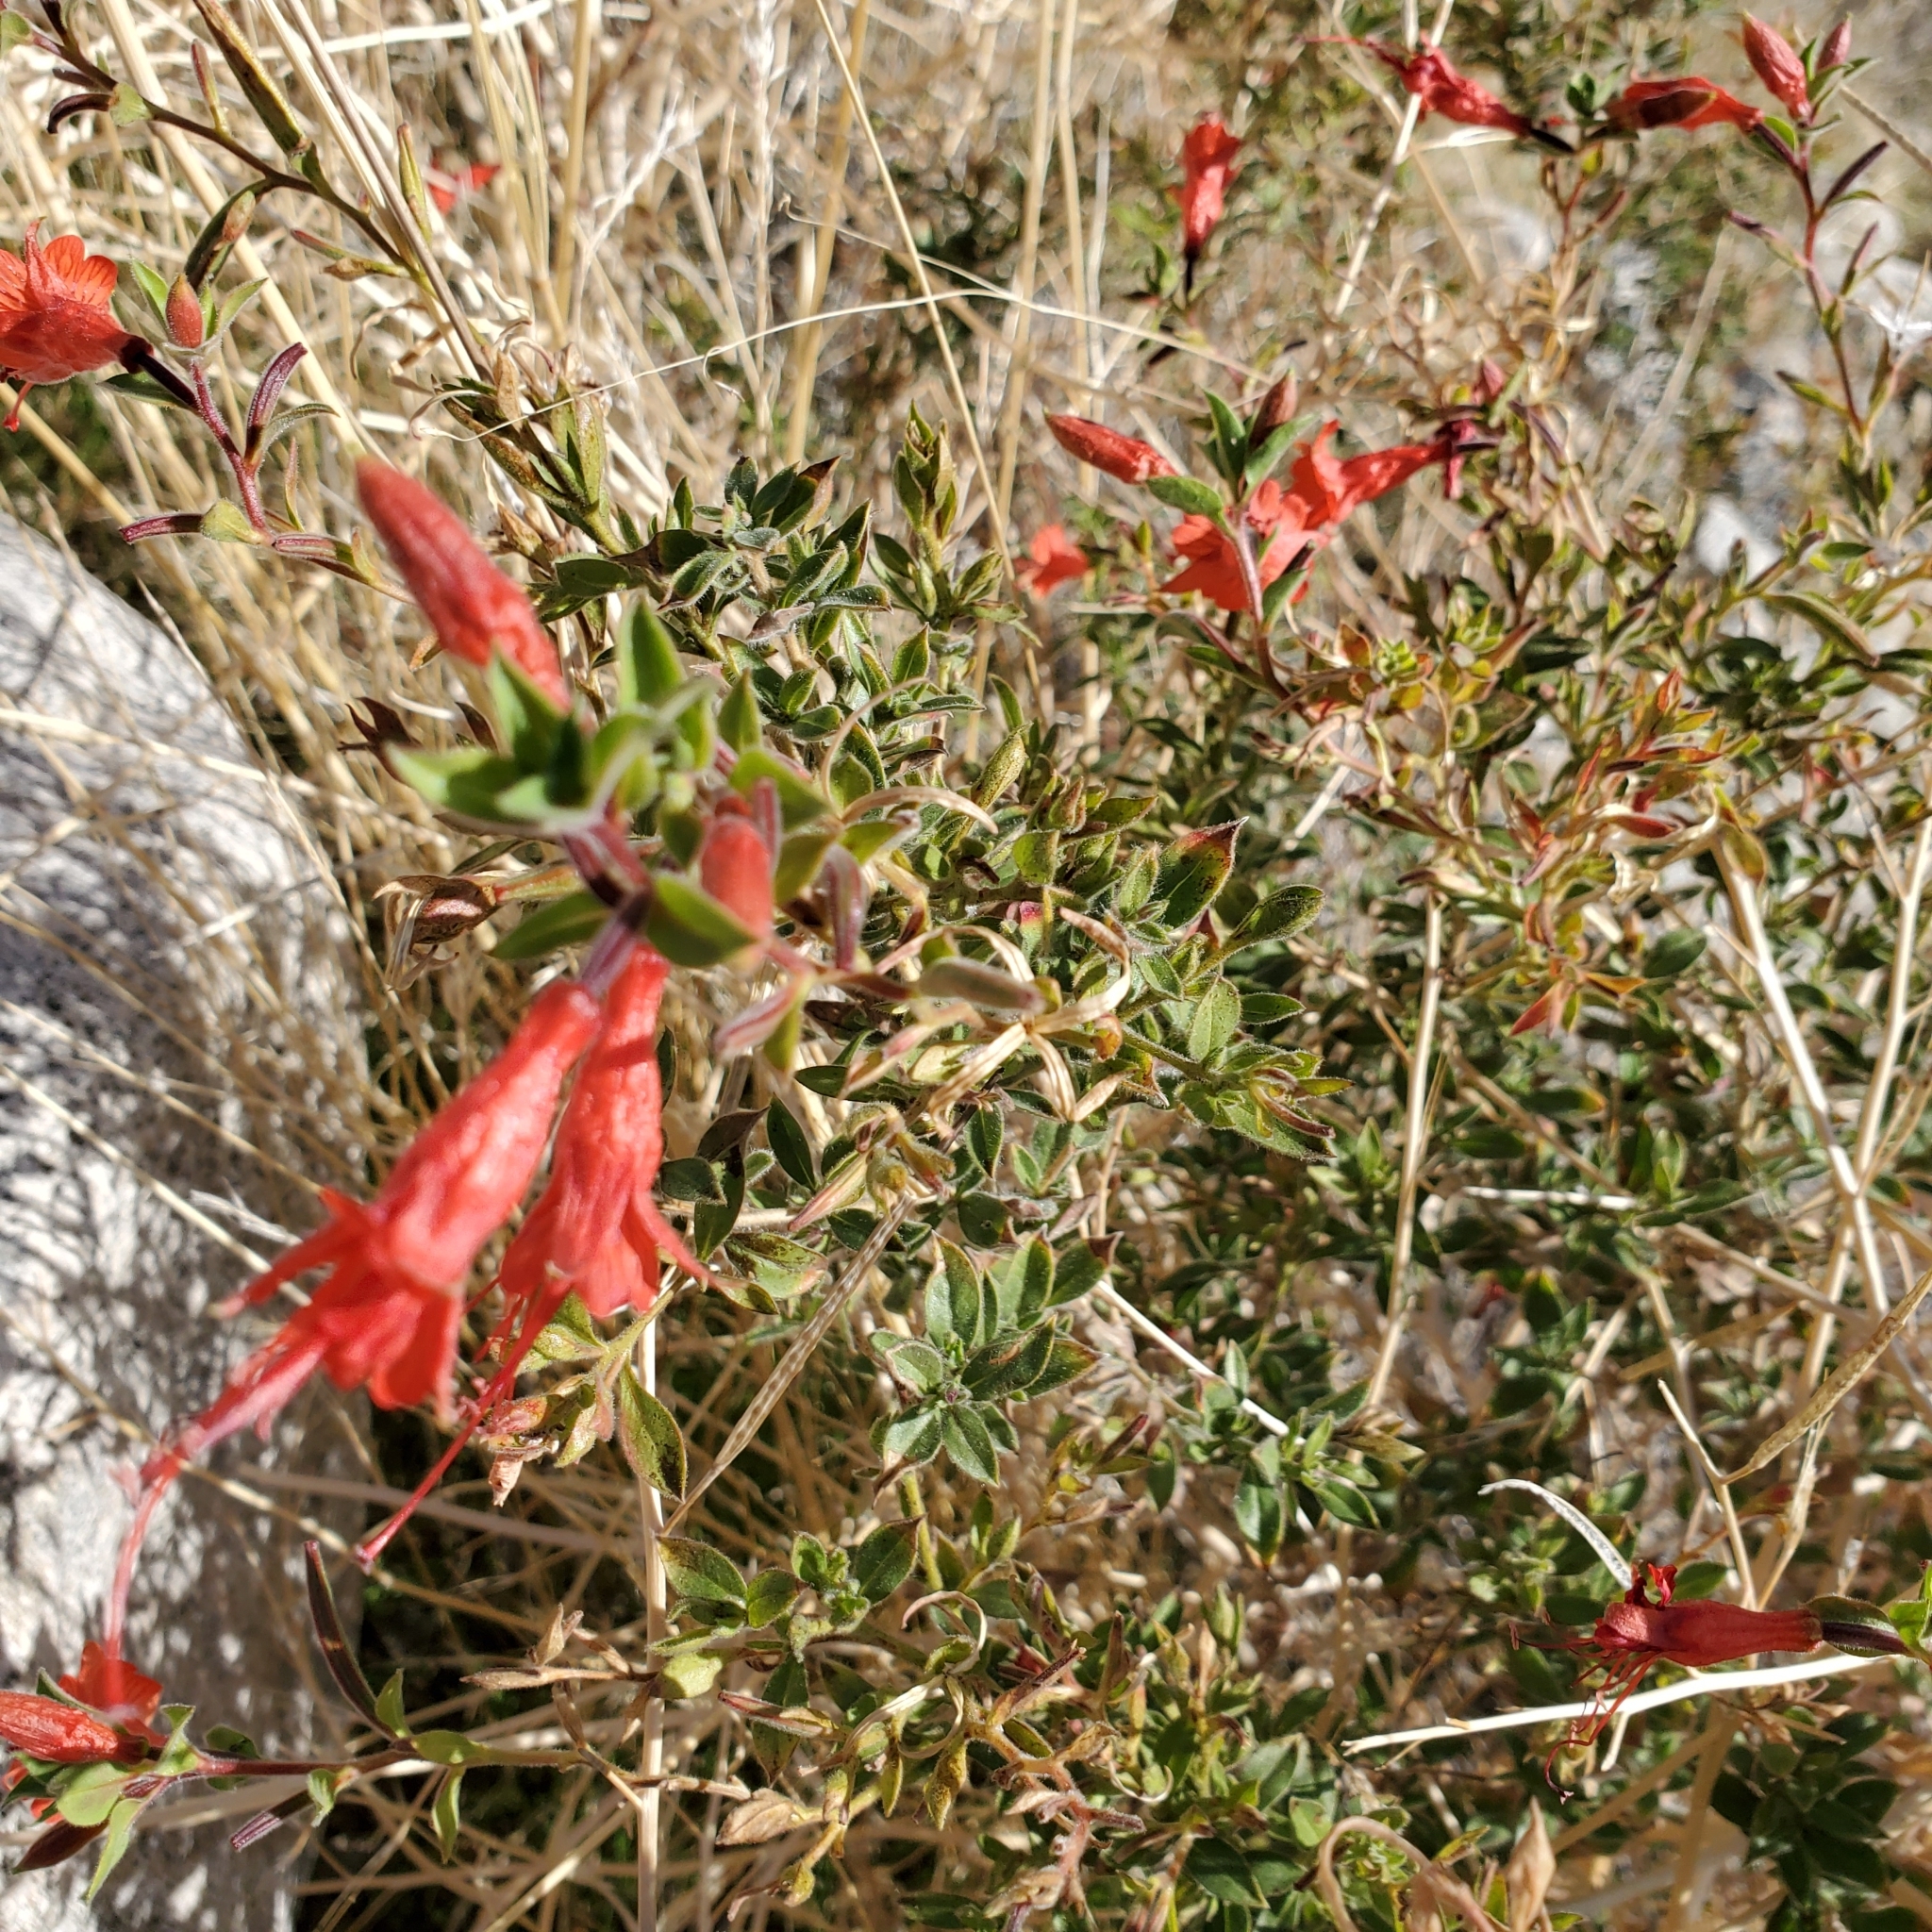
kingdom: Plantae
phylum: Tracheophyta
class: Magnoliopsida
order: Myrtales
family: Onagraceae
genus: Epilobium
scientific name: Epilobium canum
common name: California-fuchsia
